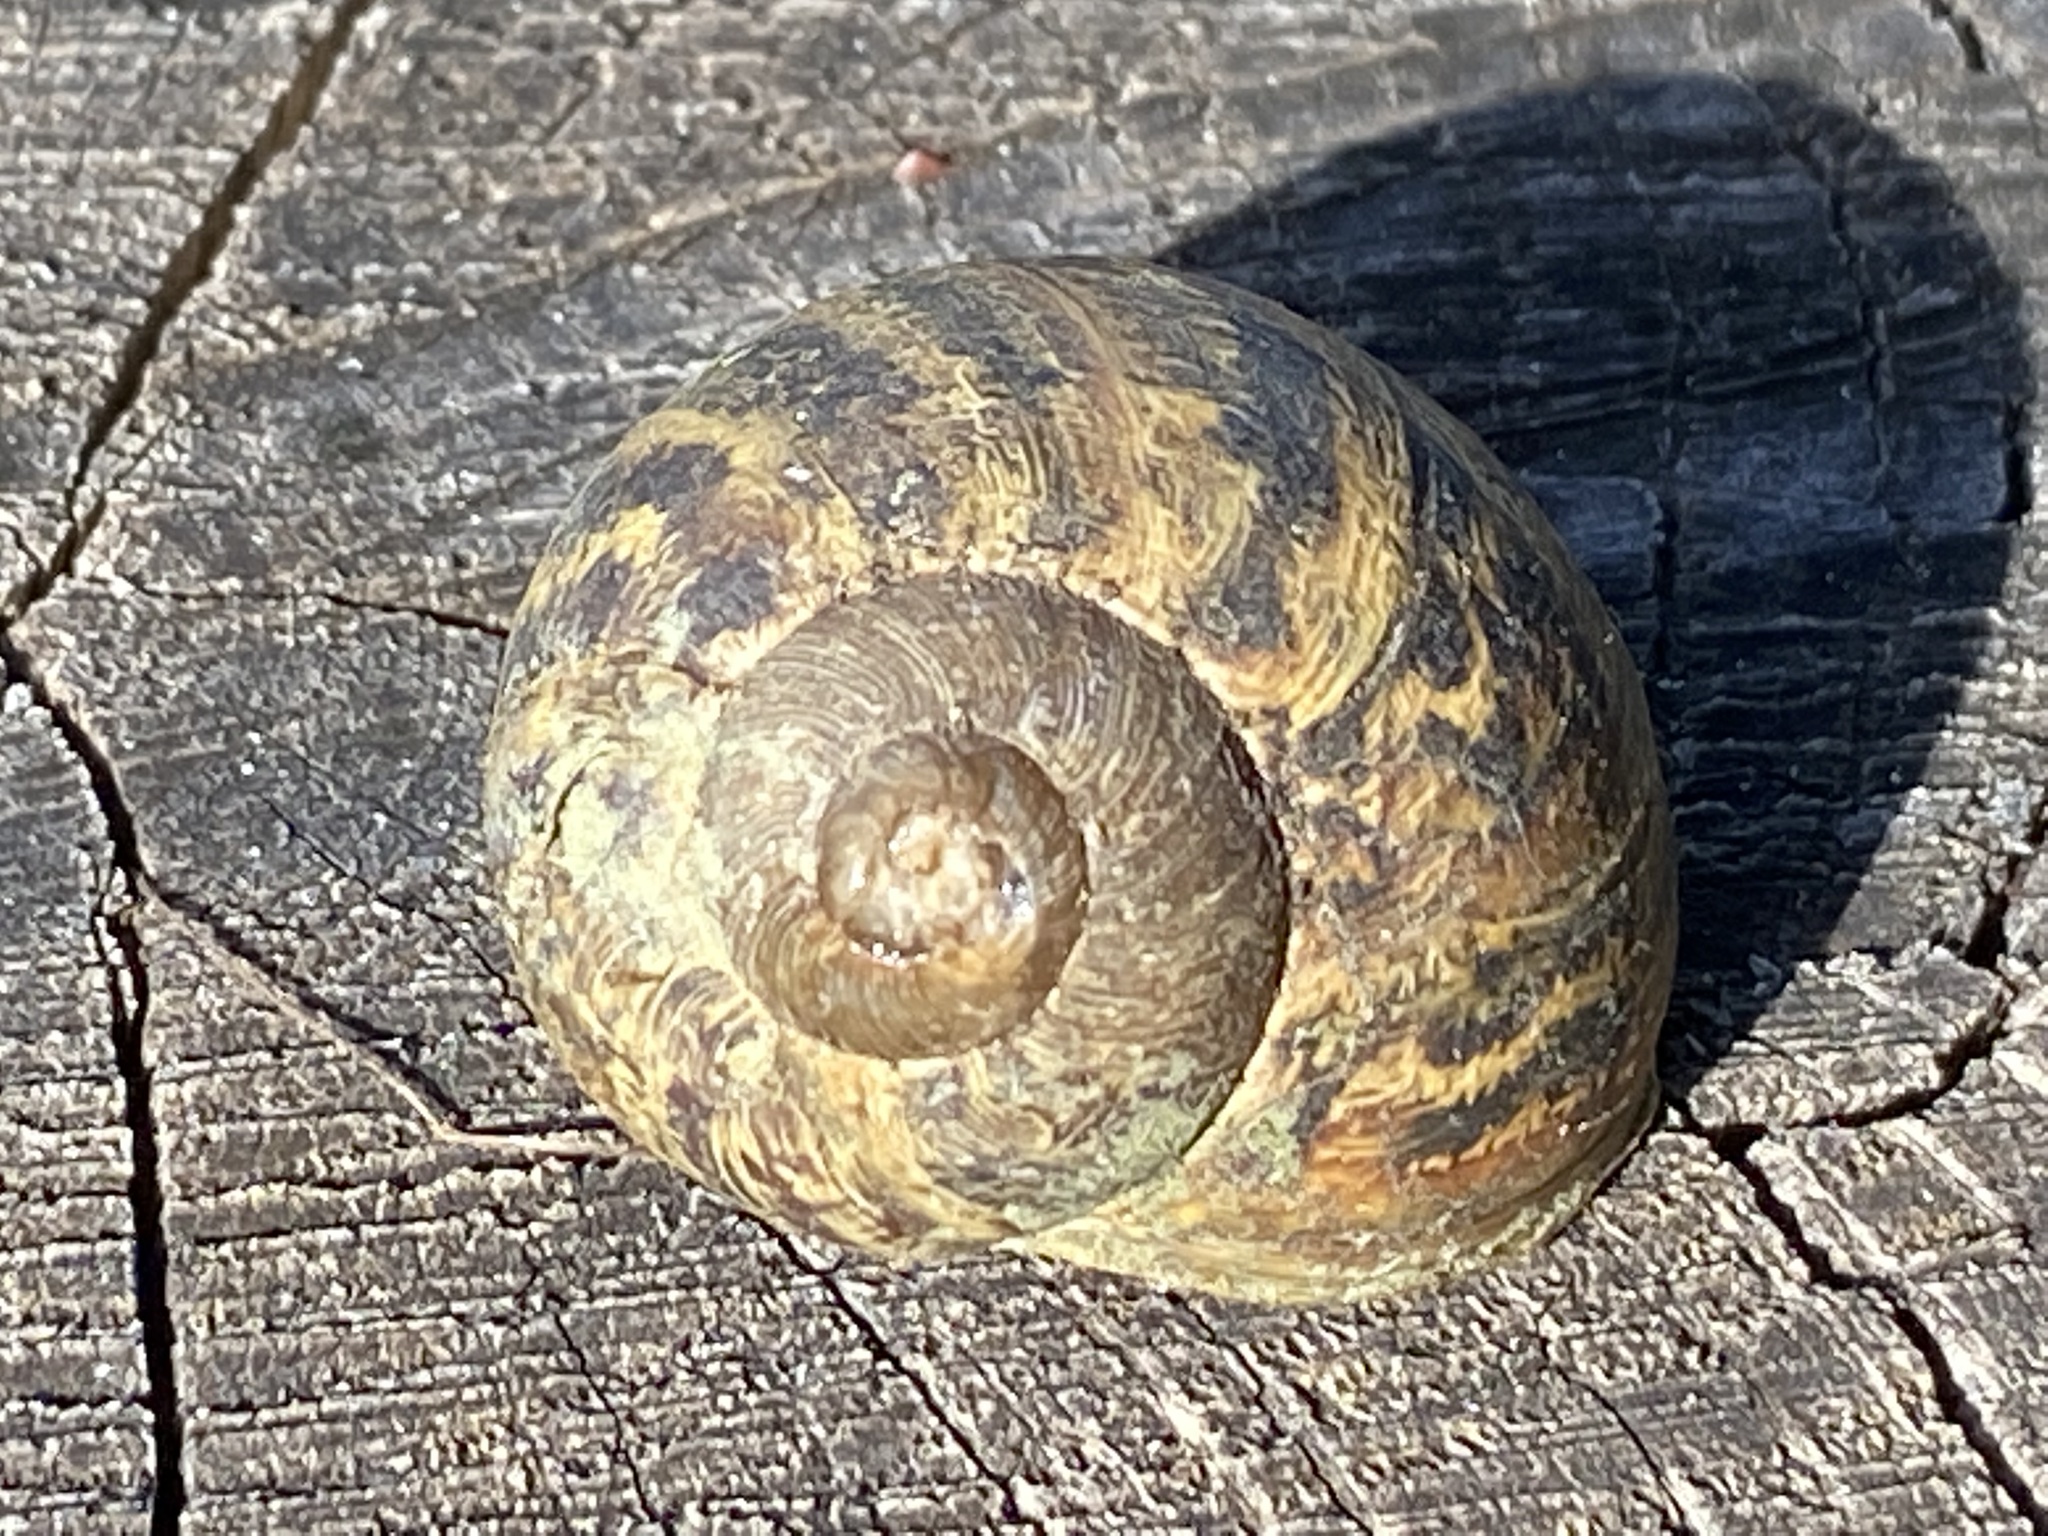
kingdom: Animalia
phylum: Mollusca
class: Gastropoda
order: Stylommatophora
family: Helicidae
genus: Cornu
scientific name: Cornu aspersum
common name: Brown garden snail
